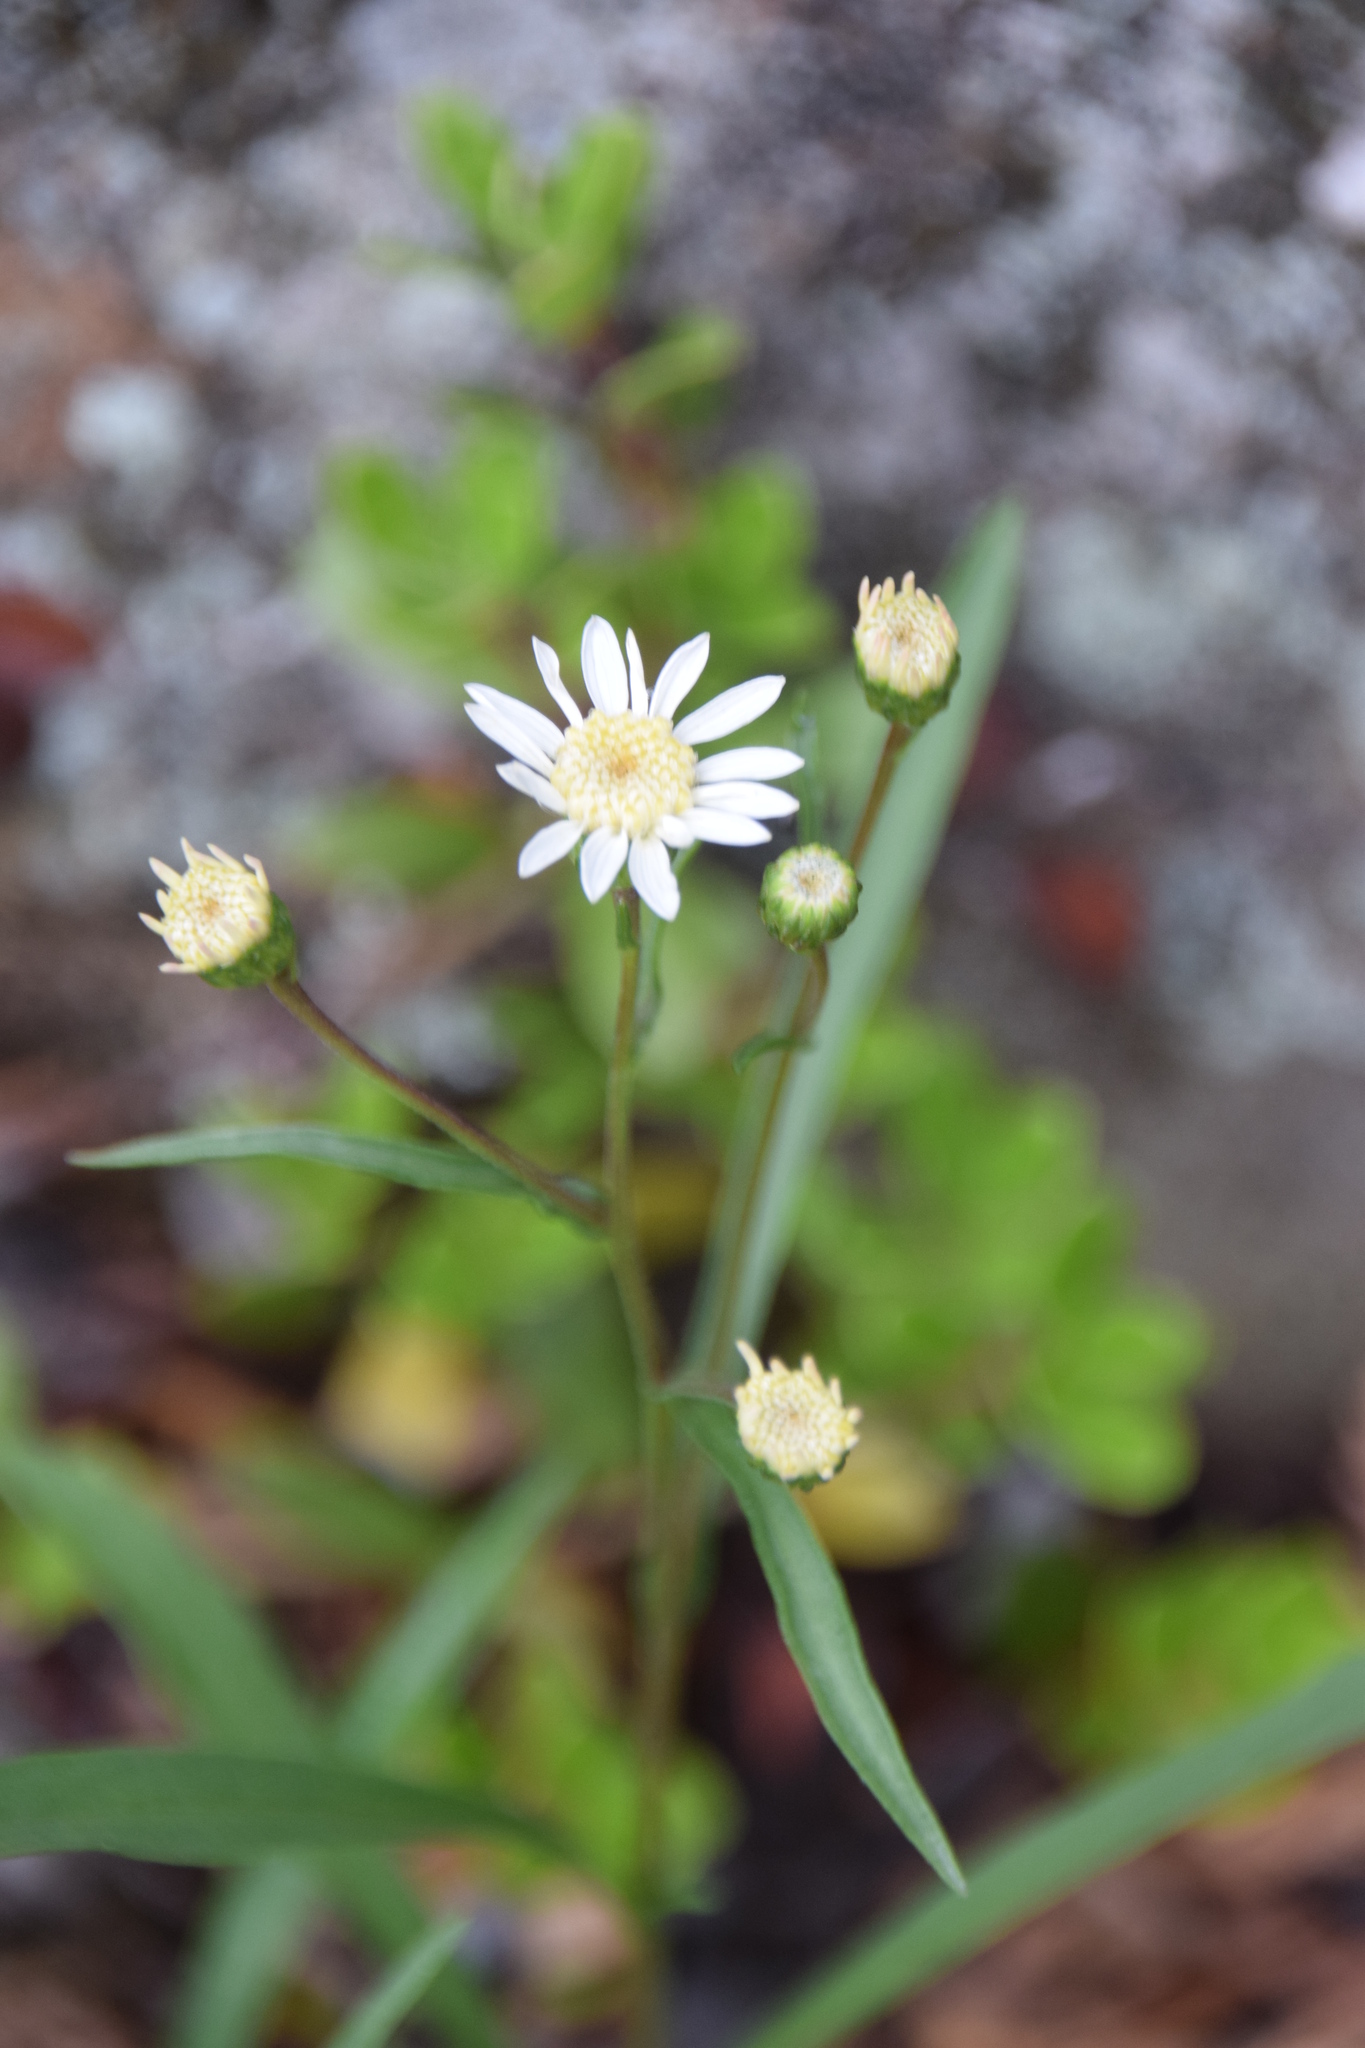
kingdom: Plantae
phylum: Tracheophyta
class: Magnoliopsida
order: Asterales
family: Asteraceae
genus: Solidago
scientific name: Solidago ptarmicoides
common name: White flat-top goldenrod
